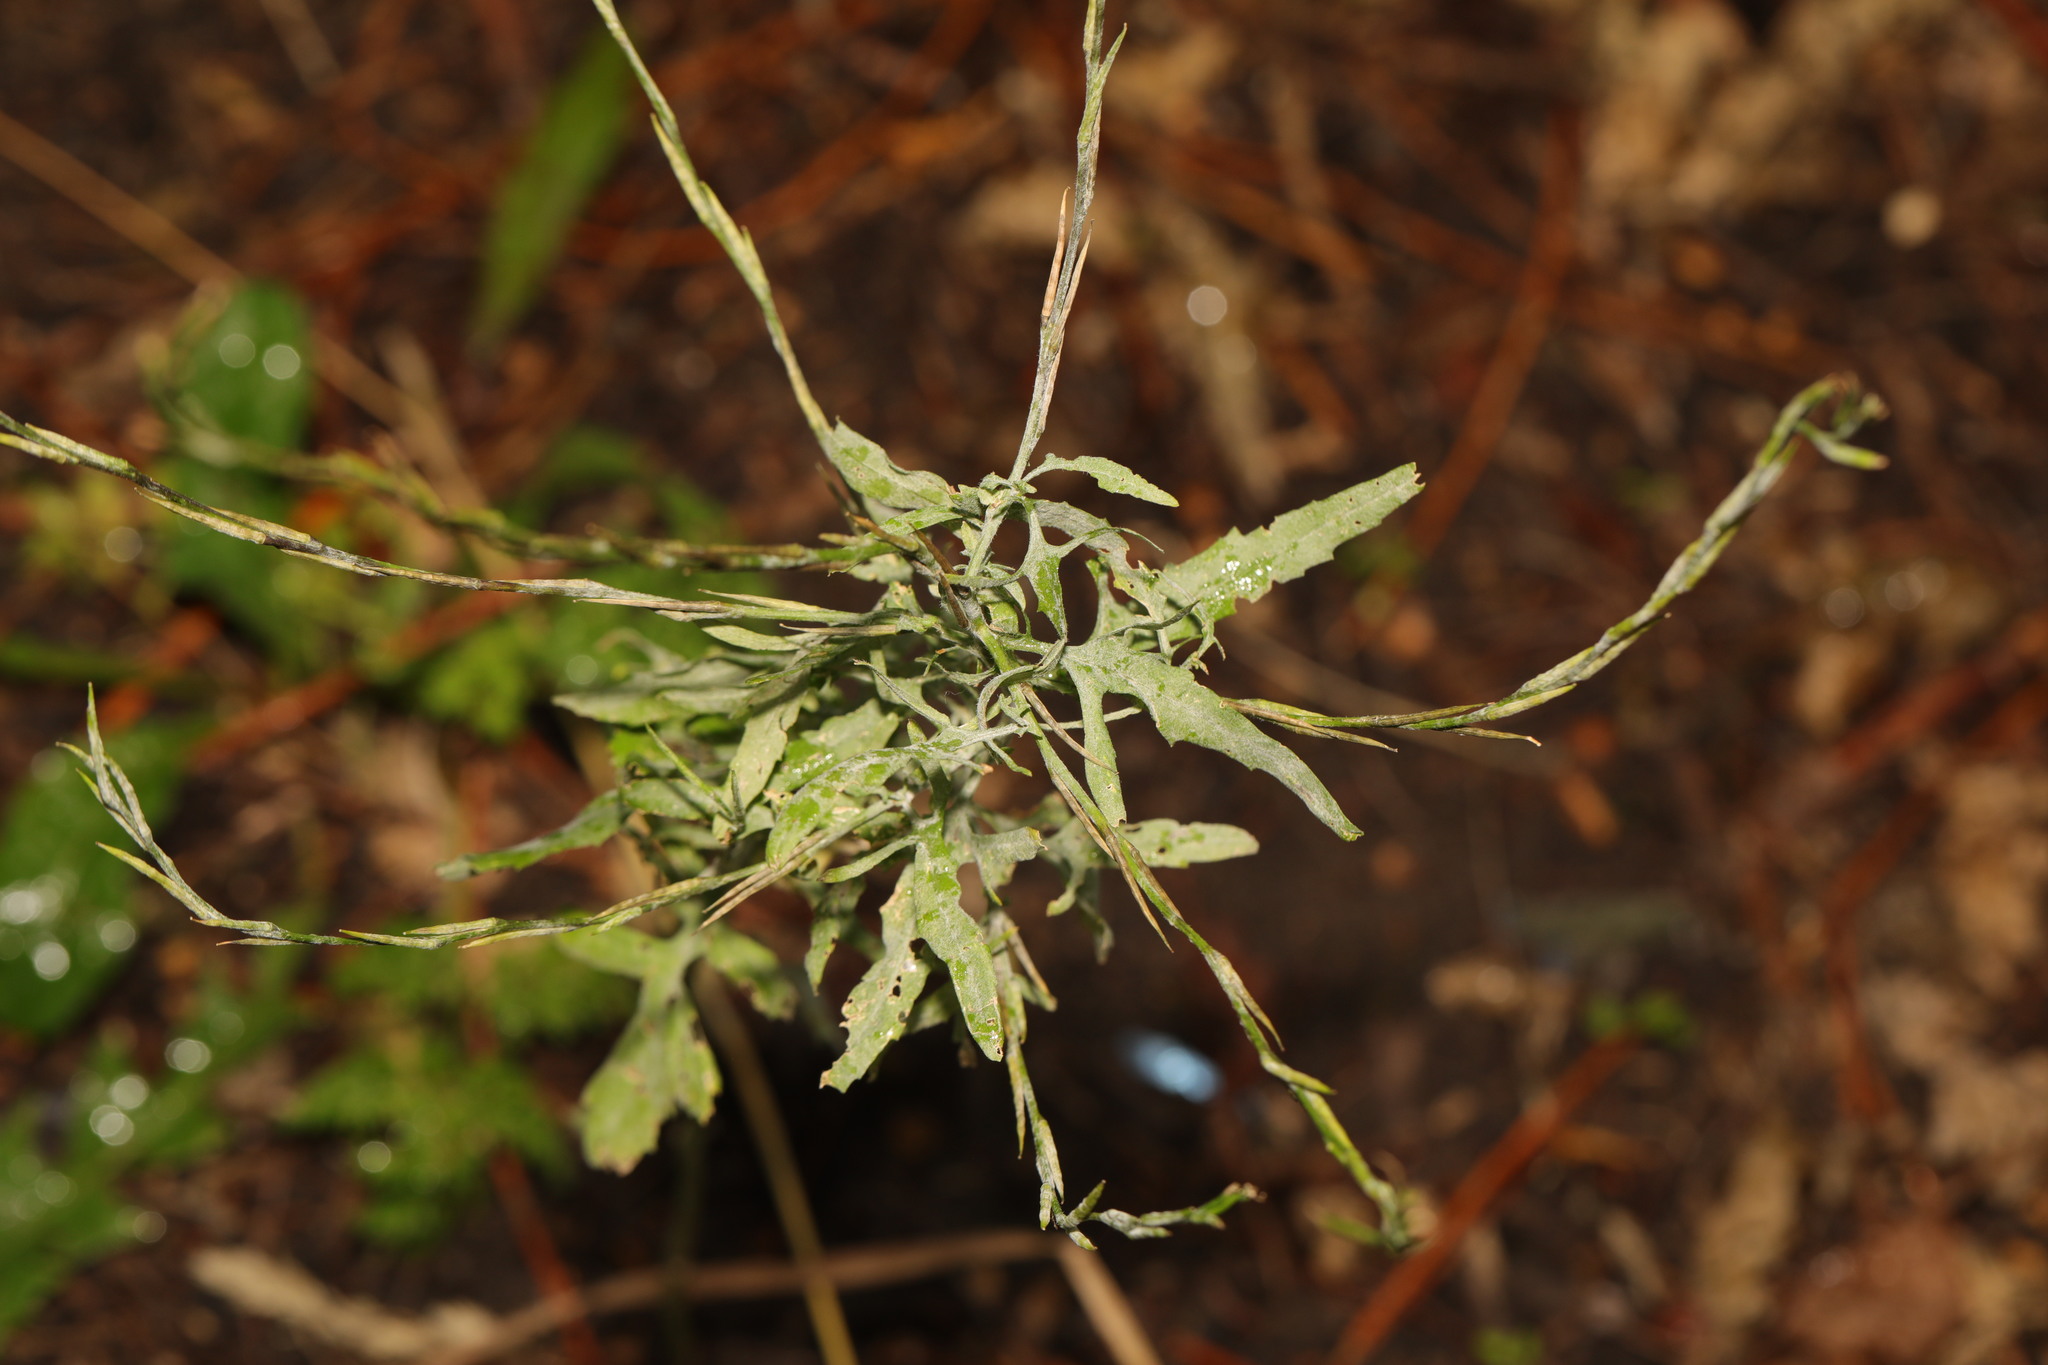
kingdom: Fungi
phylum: Ascomycota
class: Leotiomycetes
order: Helotiales
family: Erysiphaceae
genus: Erysiphe
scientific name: Erysiphe cruciferarum
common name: Brassica powdery mildew
